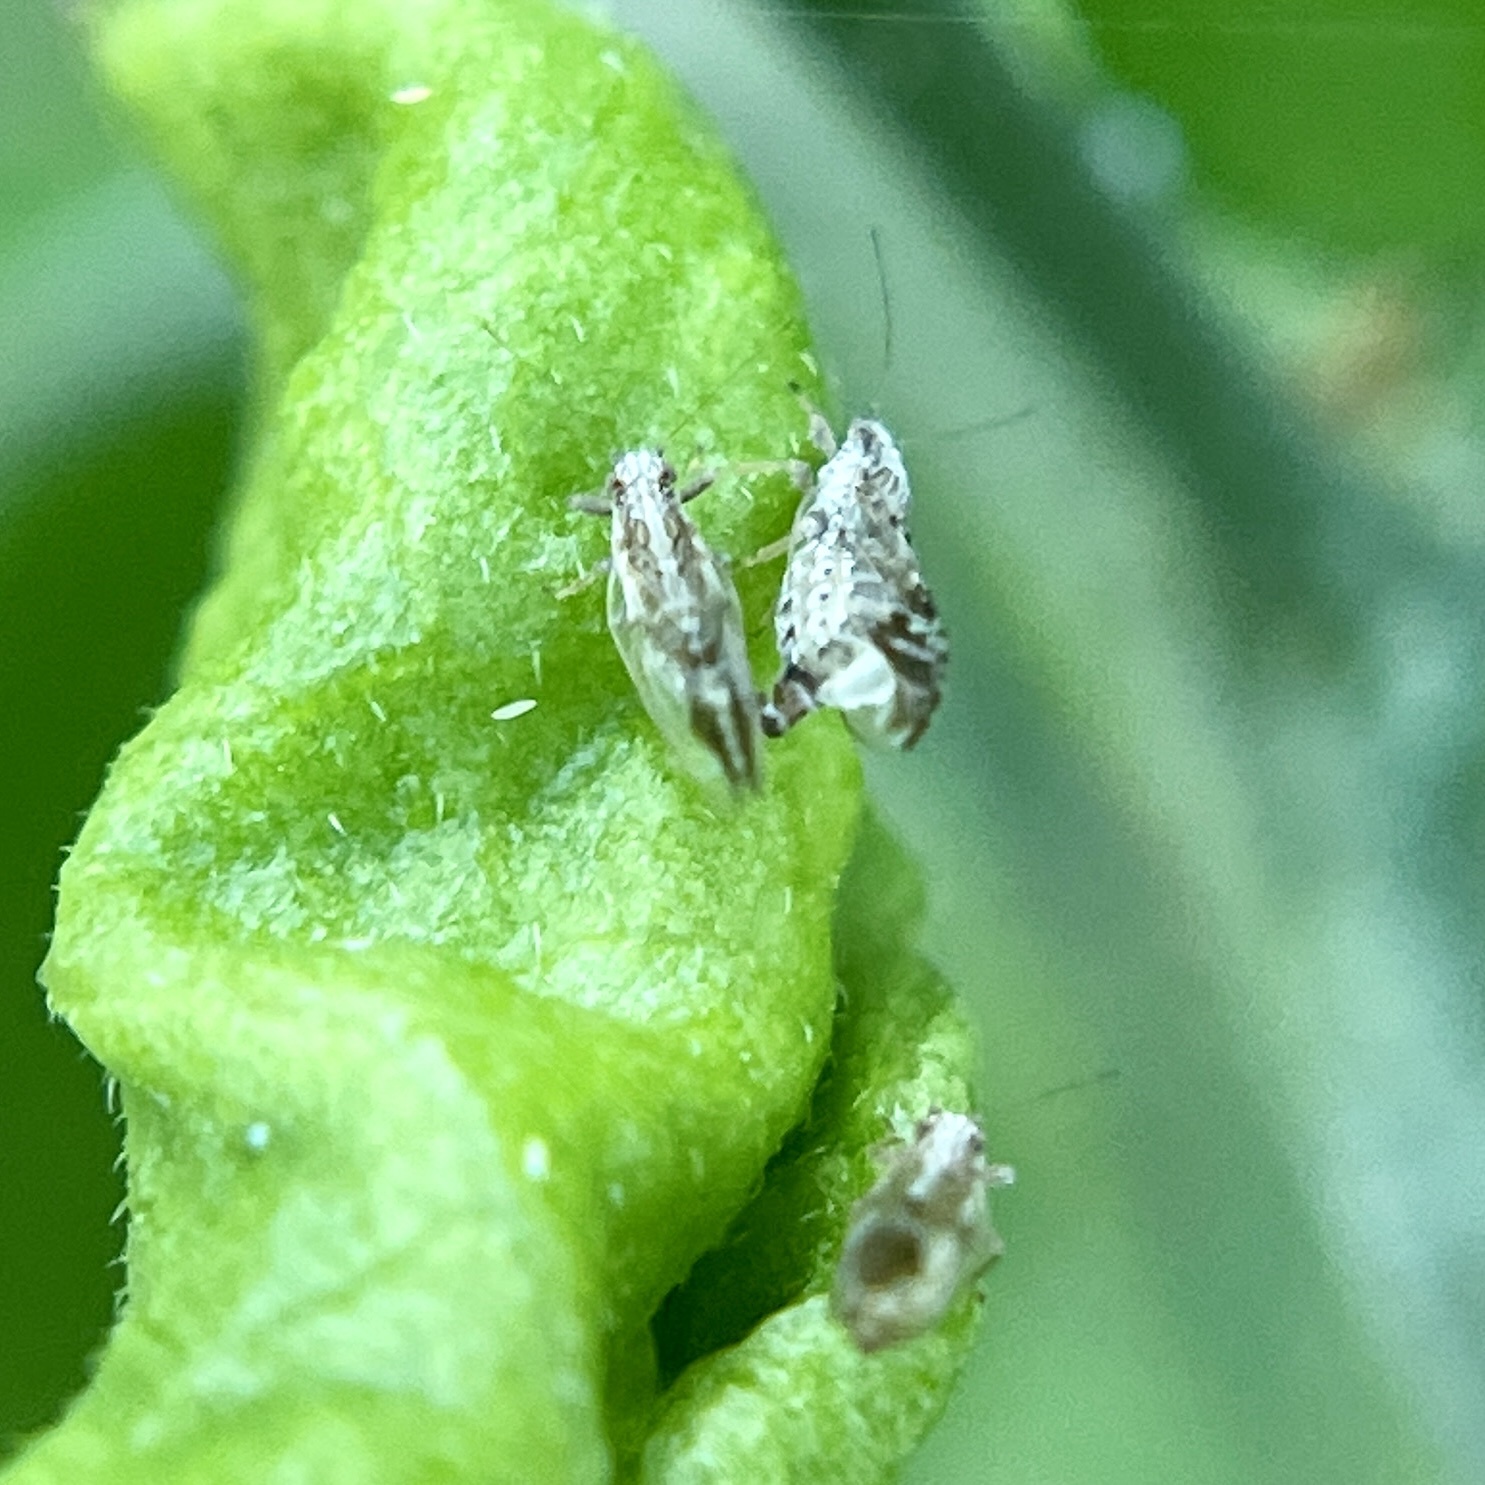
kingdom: Animalia
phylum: Arthropoda
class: Insecta
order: Hemiptera
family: Triozidae
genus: Leuronota
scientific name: Leuronota maculata
